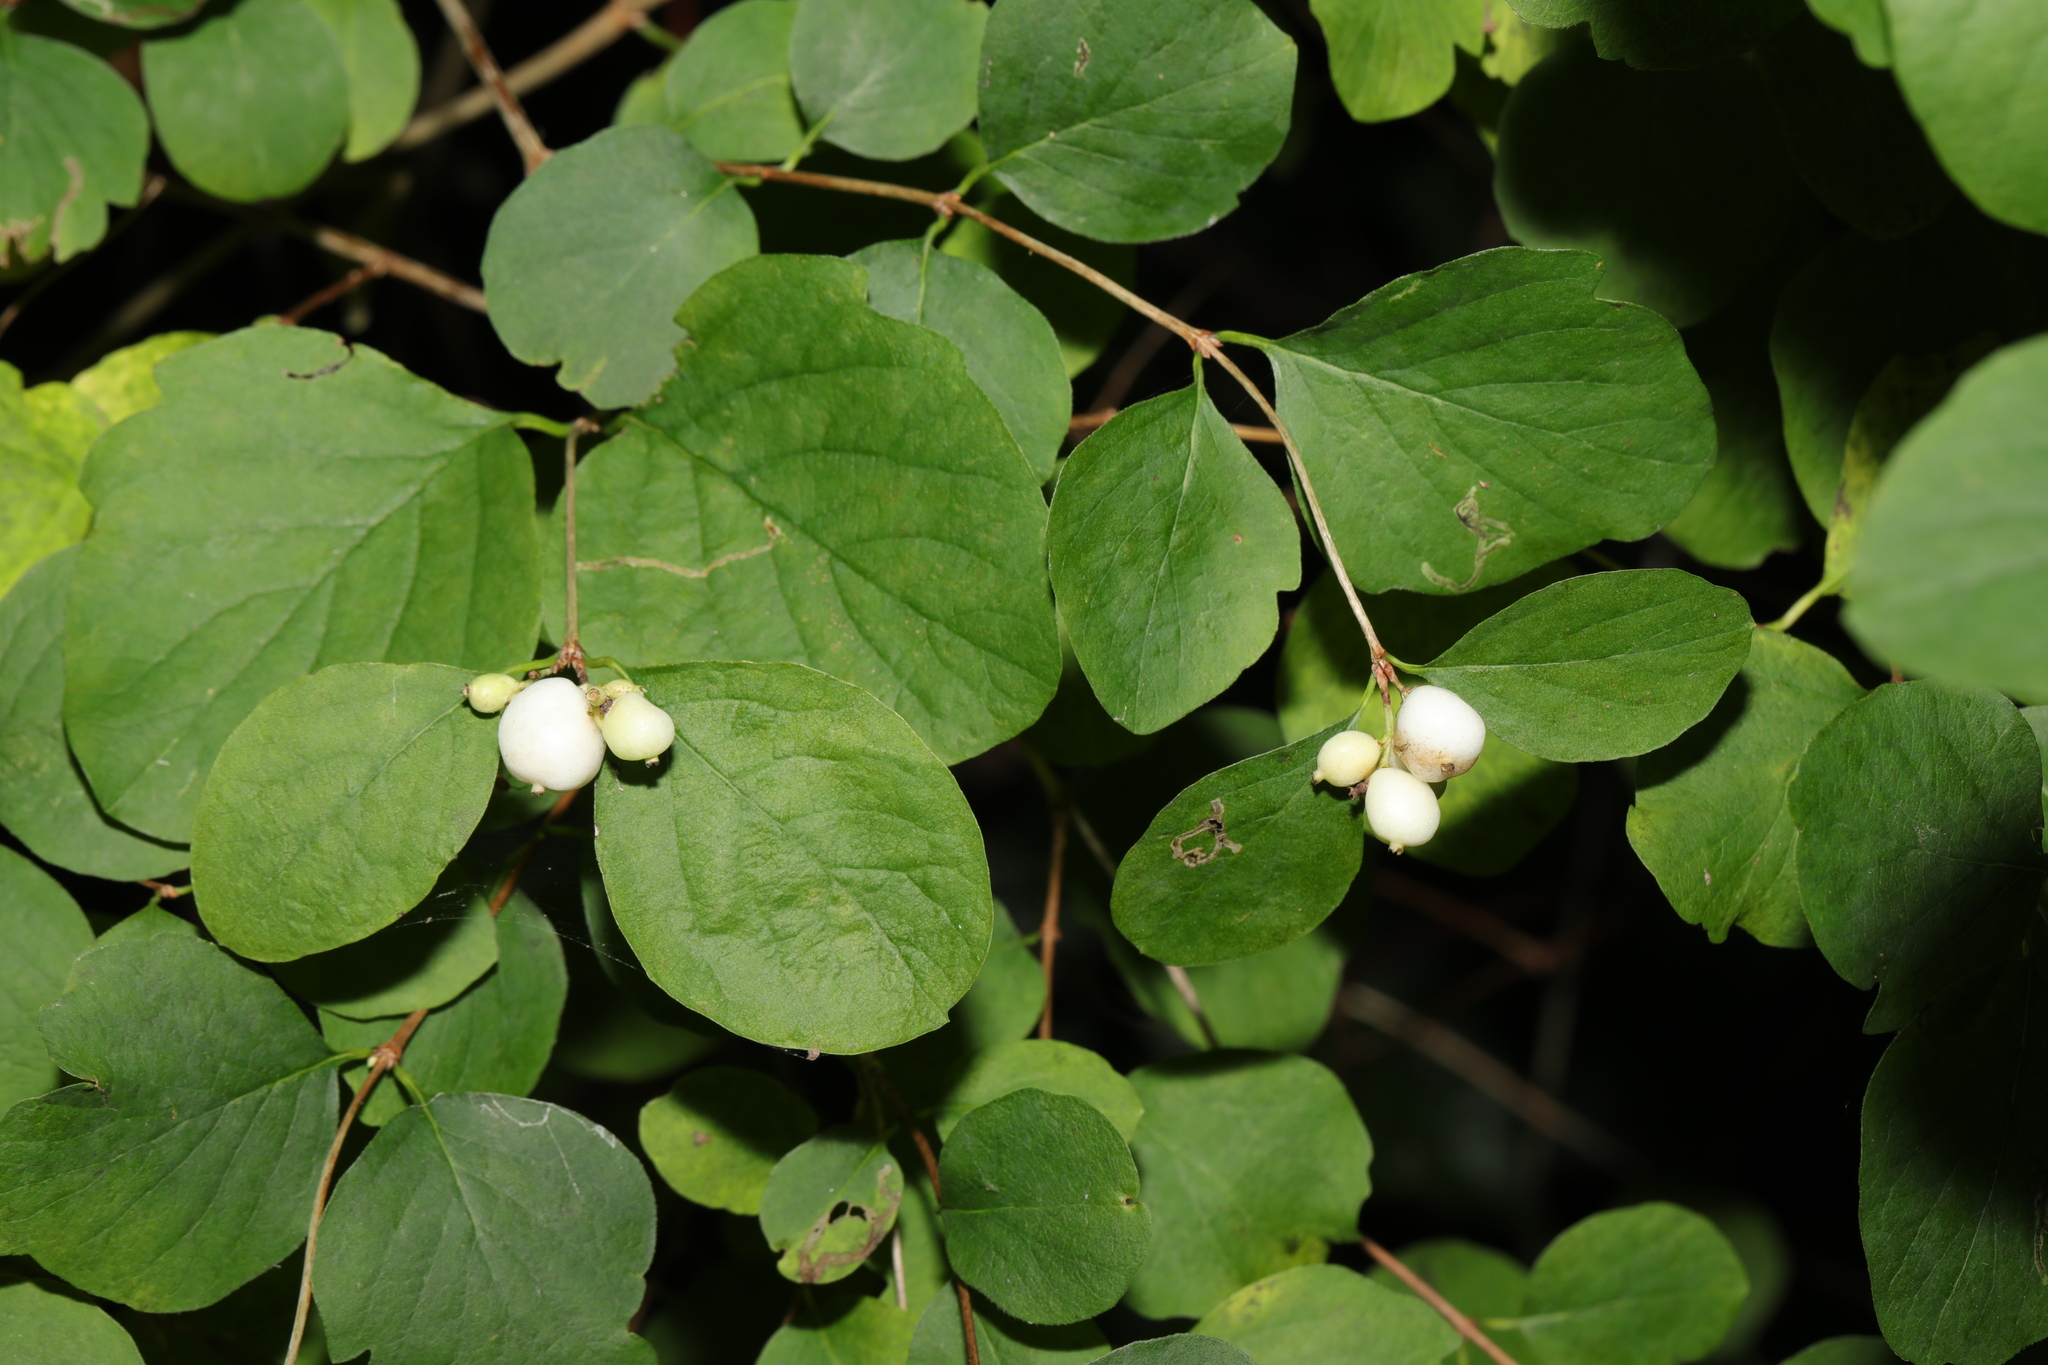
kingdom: Plantae
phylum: Tracheophyta
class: Magnoliopsida
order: Dipsacales
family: Caprifoliaceae
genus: Symphoricarpos
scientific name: Symphoricarpos albus
